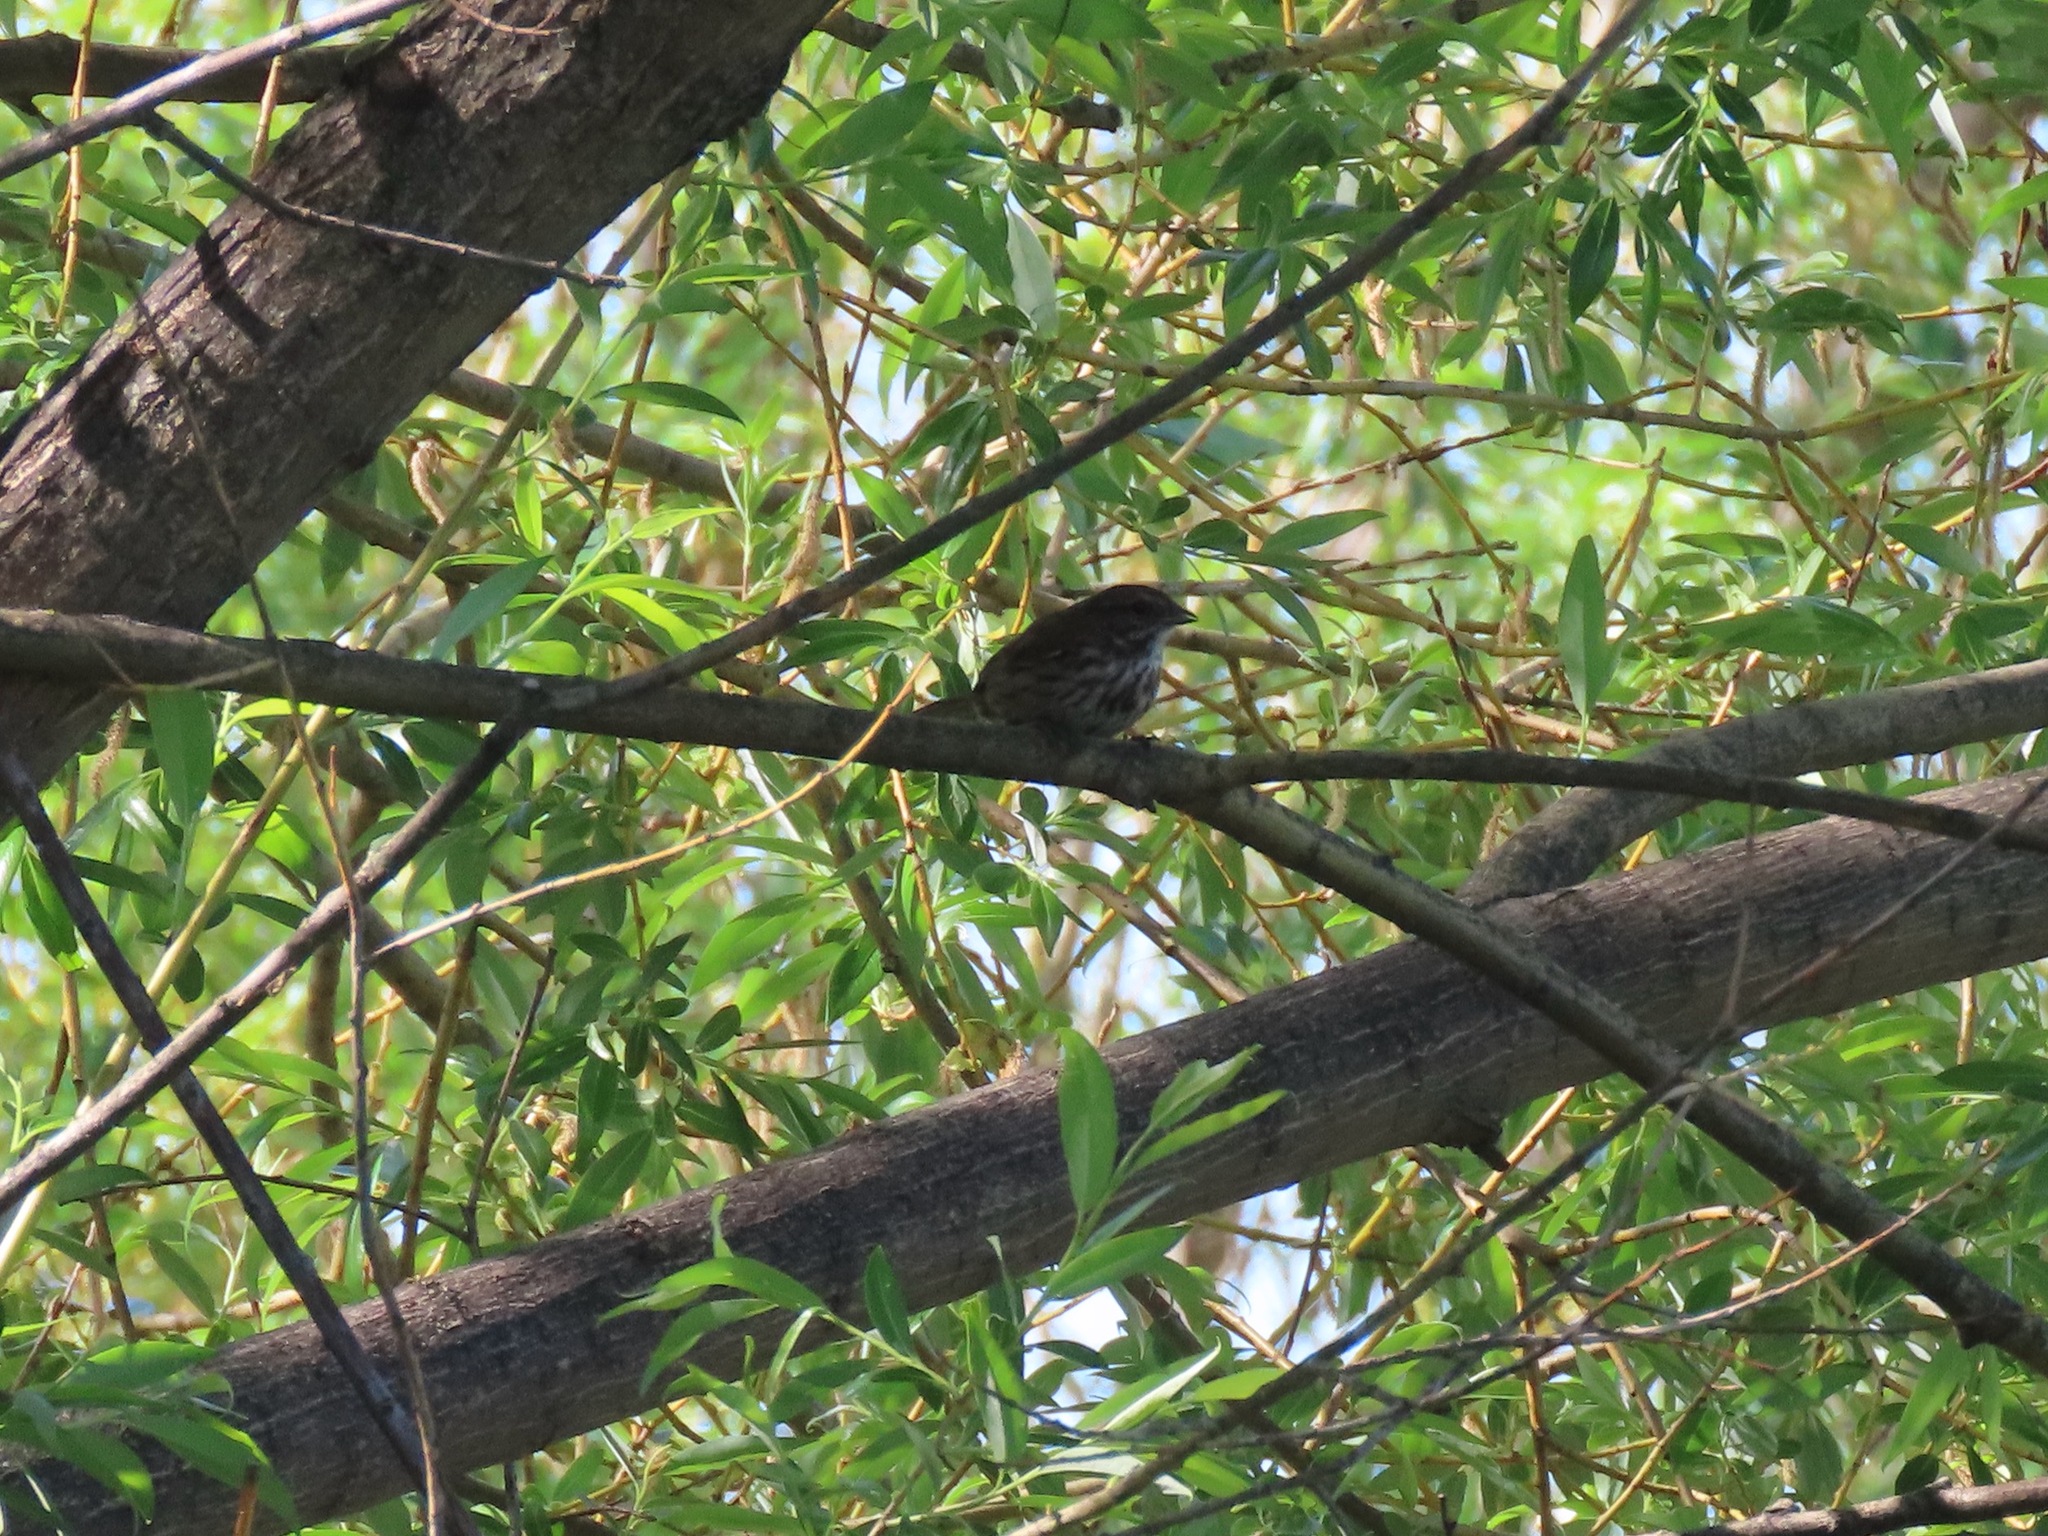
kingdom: Animalia
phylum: Chordata
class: Aves
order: Passeriformes
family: Passerellidae
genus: Melospiza
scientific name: Melospiza melodia
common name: Song sparrow
